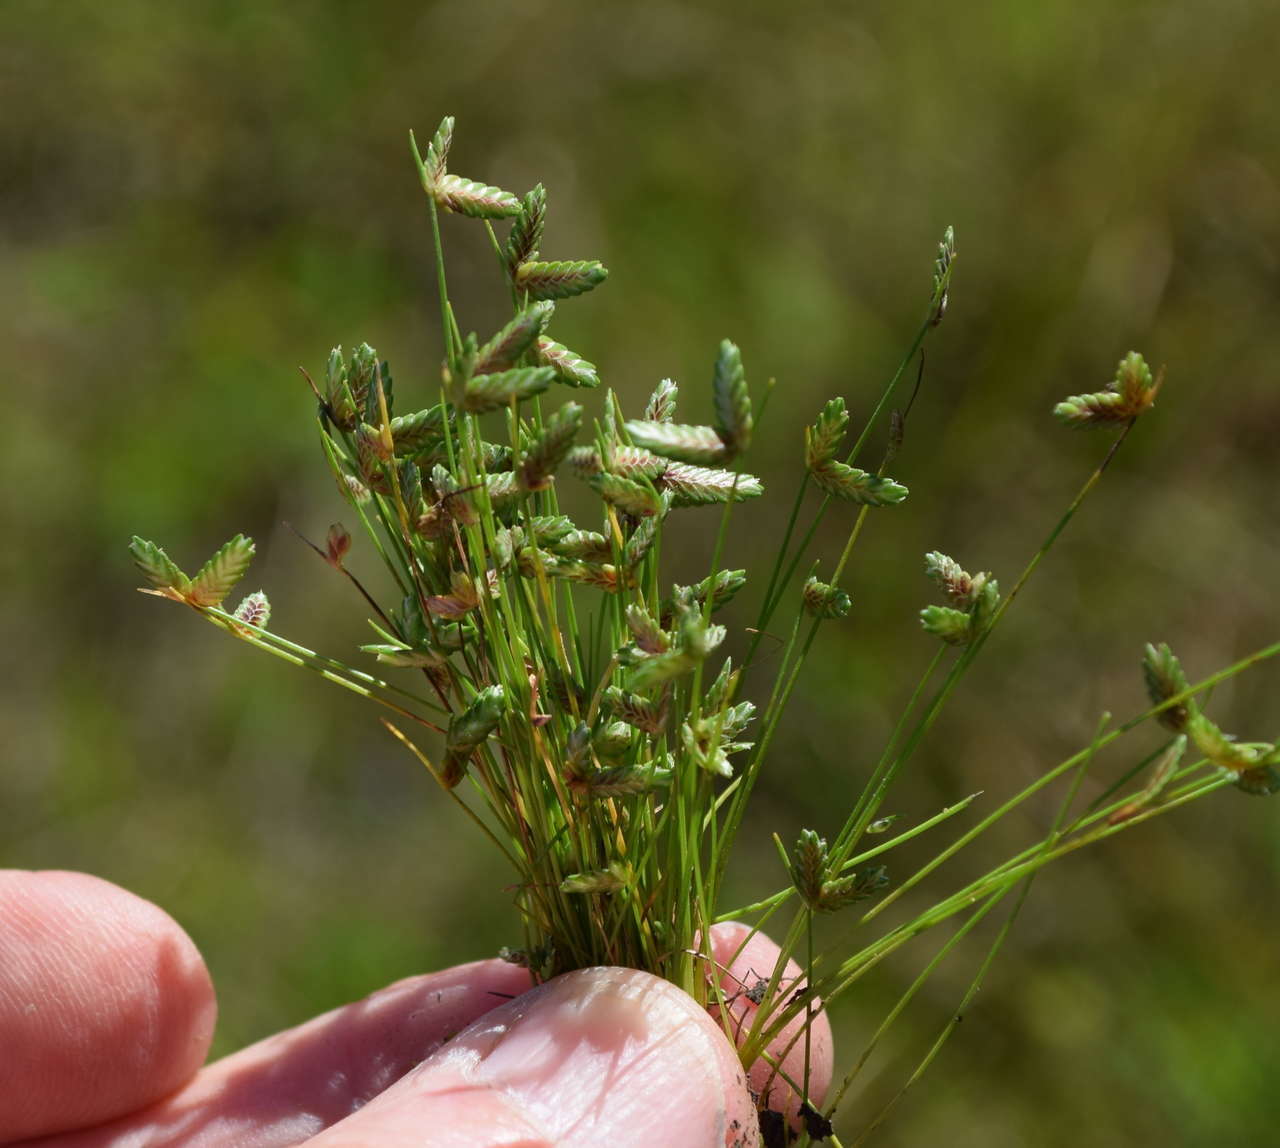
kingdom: Plantae
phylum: Tracheophyta
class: Liliopsida
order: Poales
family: Cyperaceae
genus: Isolepis
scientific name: Isolepis levynsiana
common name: Sedge
